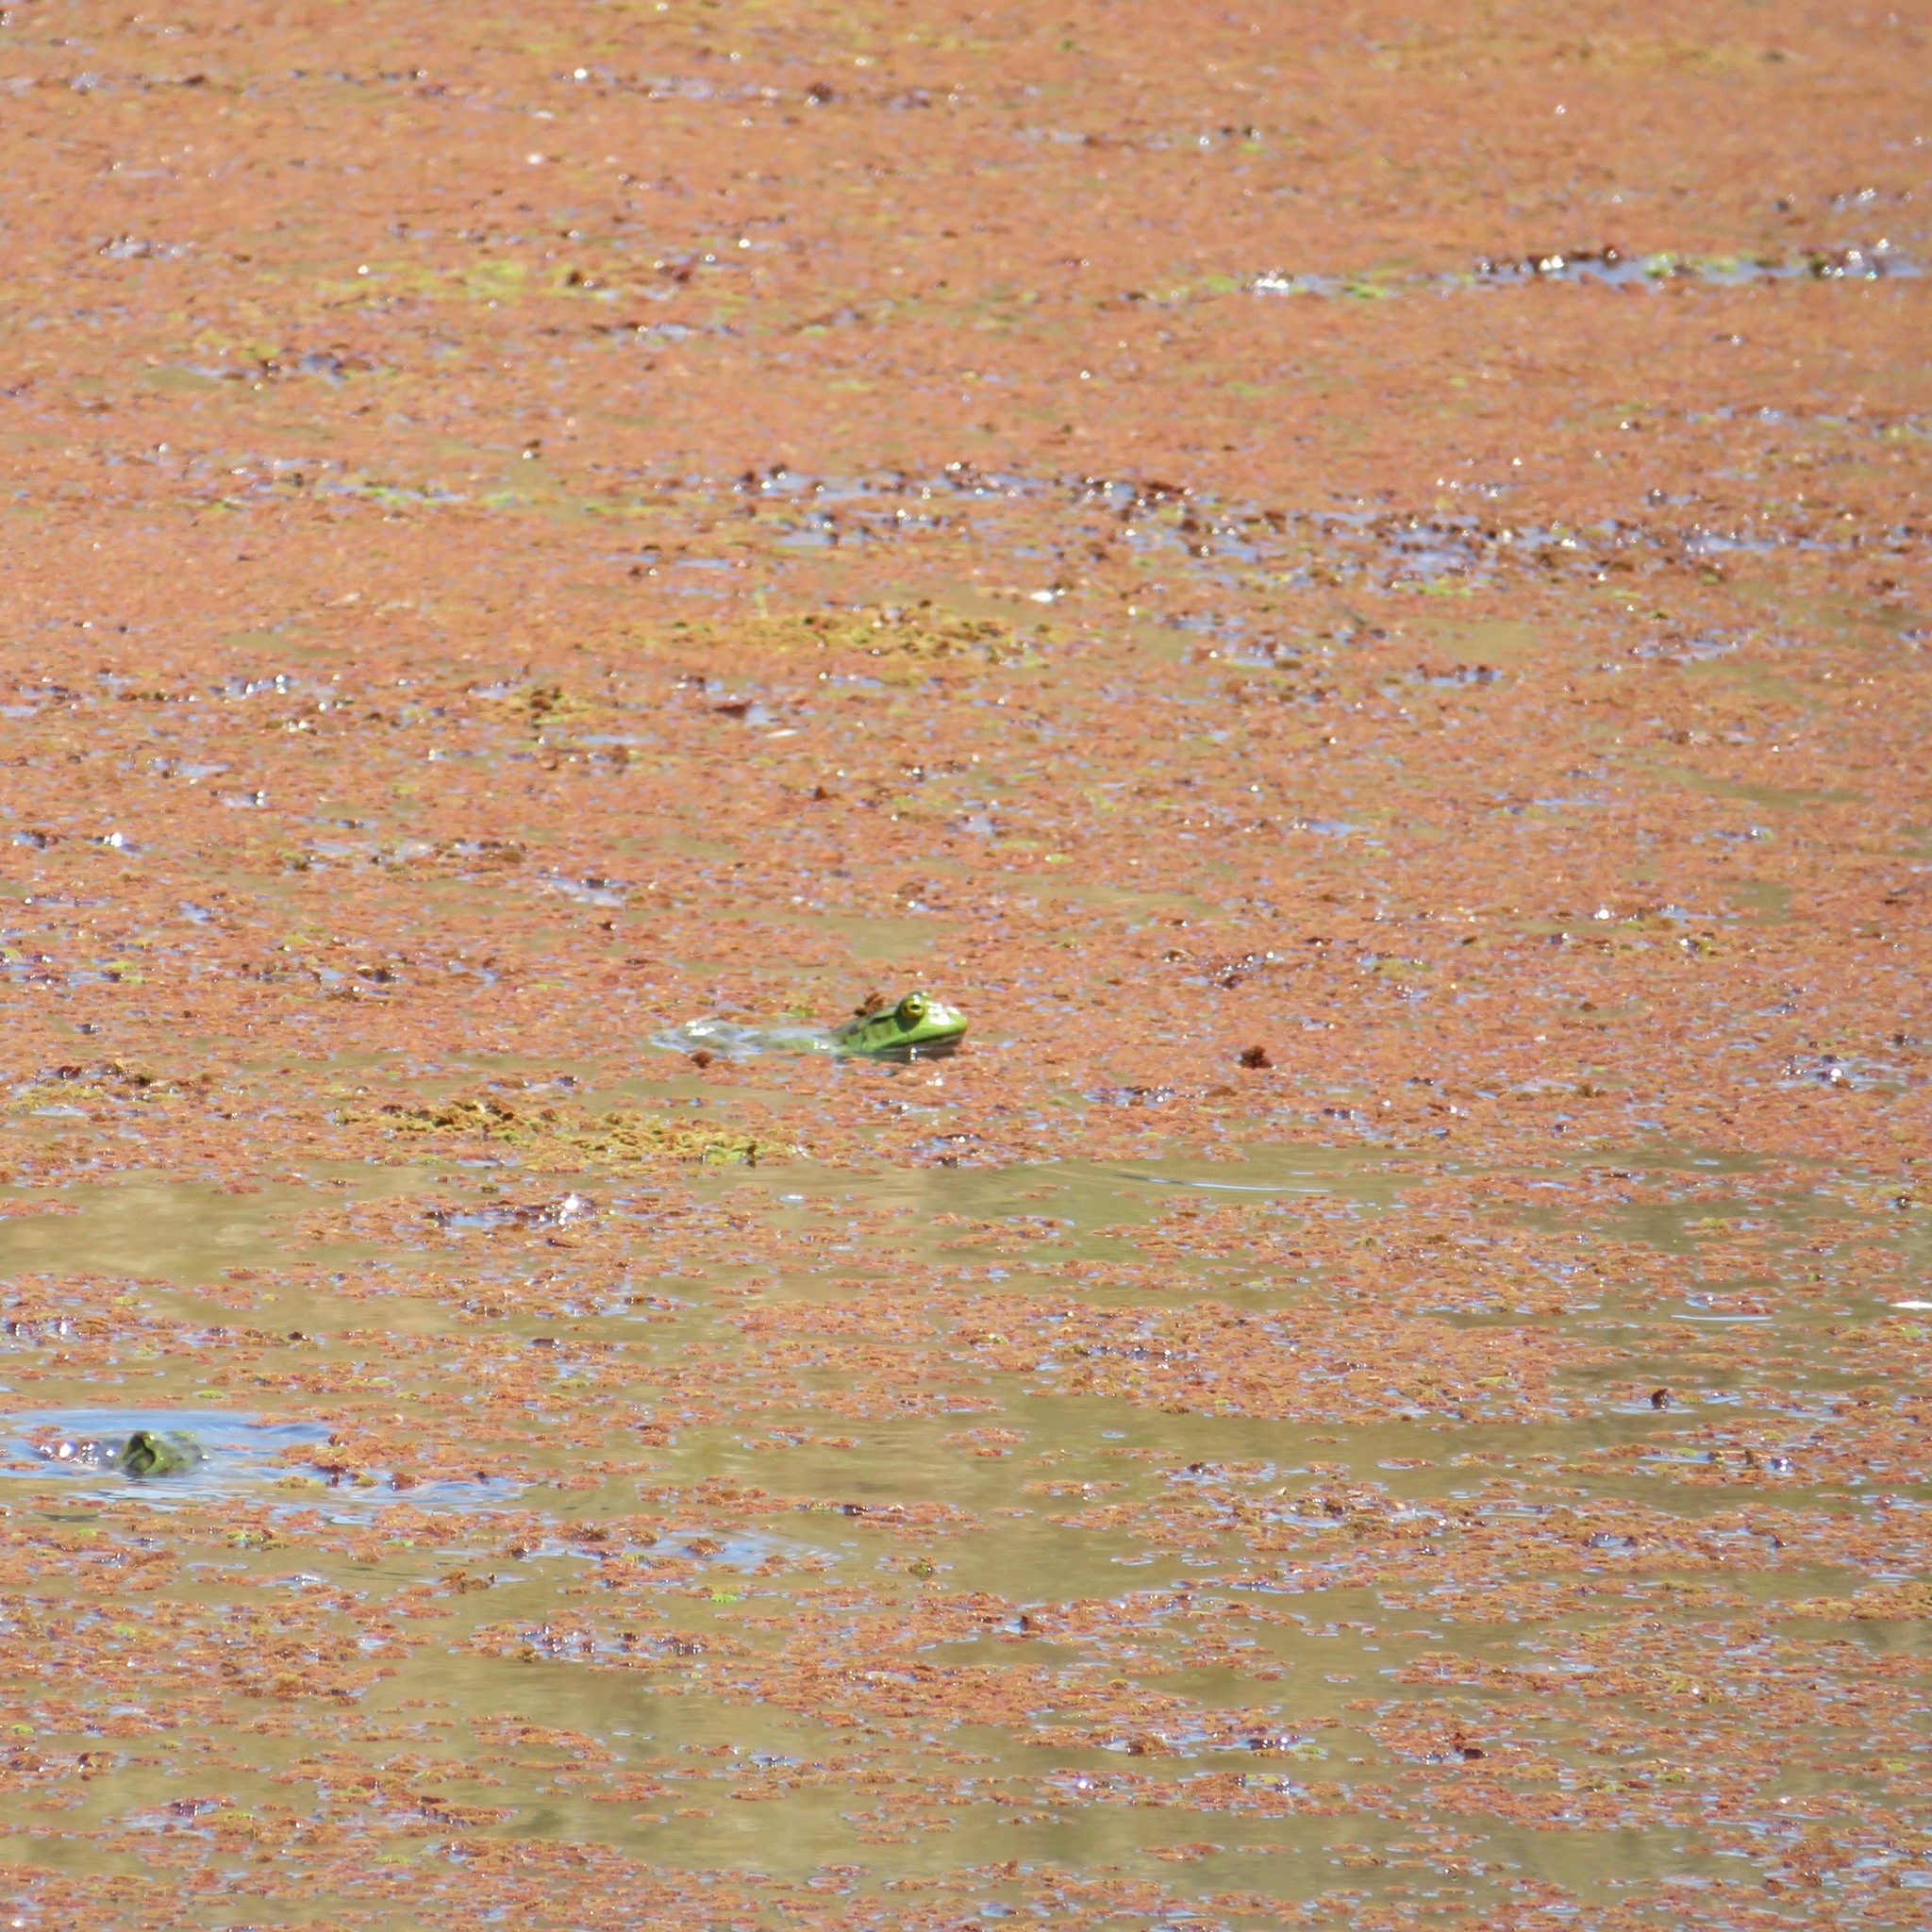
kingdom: Animalia
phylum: Chordata
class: Amphibia
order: Anura
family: Ranidae
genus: Lithobates
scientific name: Lithobates catesbeianus
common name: American bullfrog
